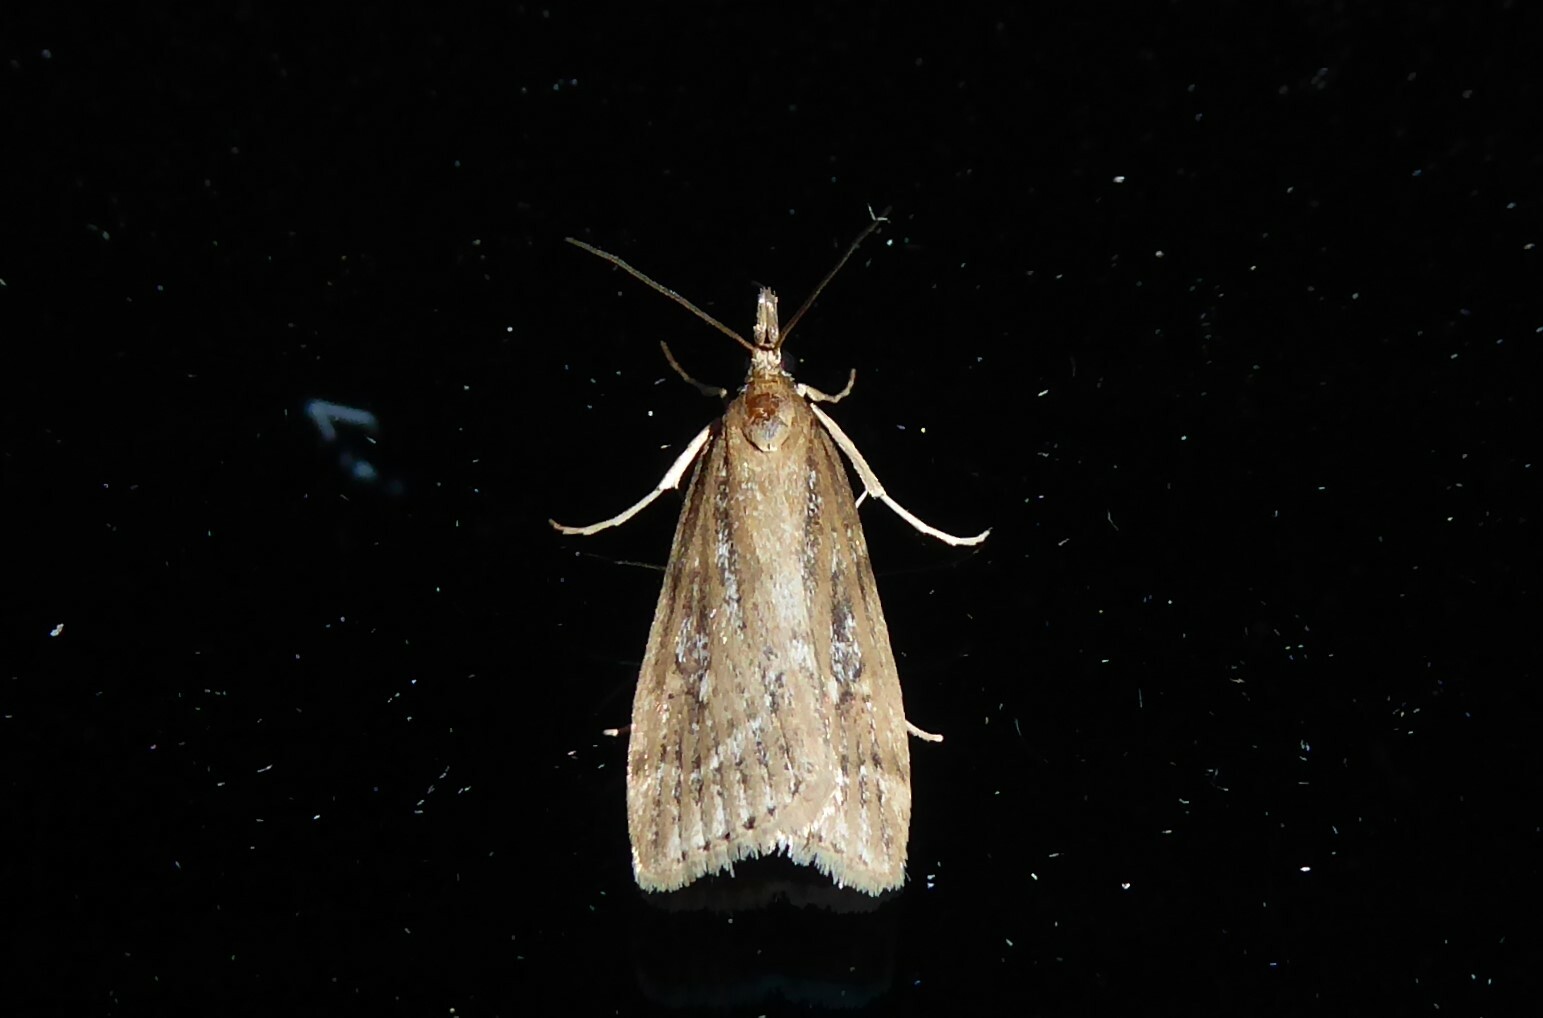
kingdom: Animalia
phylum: Arthropoda
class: Insecta
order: Lepidoptera
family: Crambidae
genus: Eudonia
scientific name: Eudonia octophora
